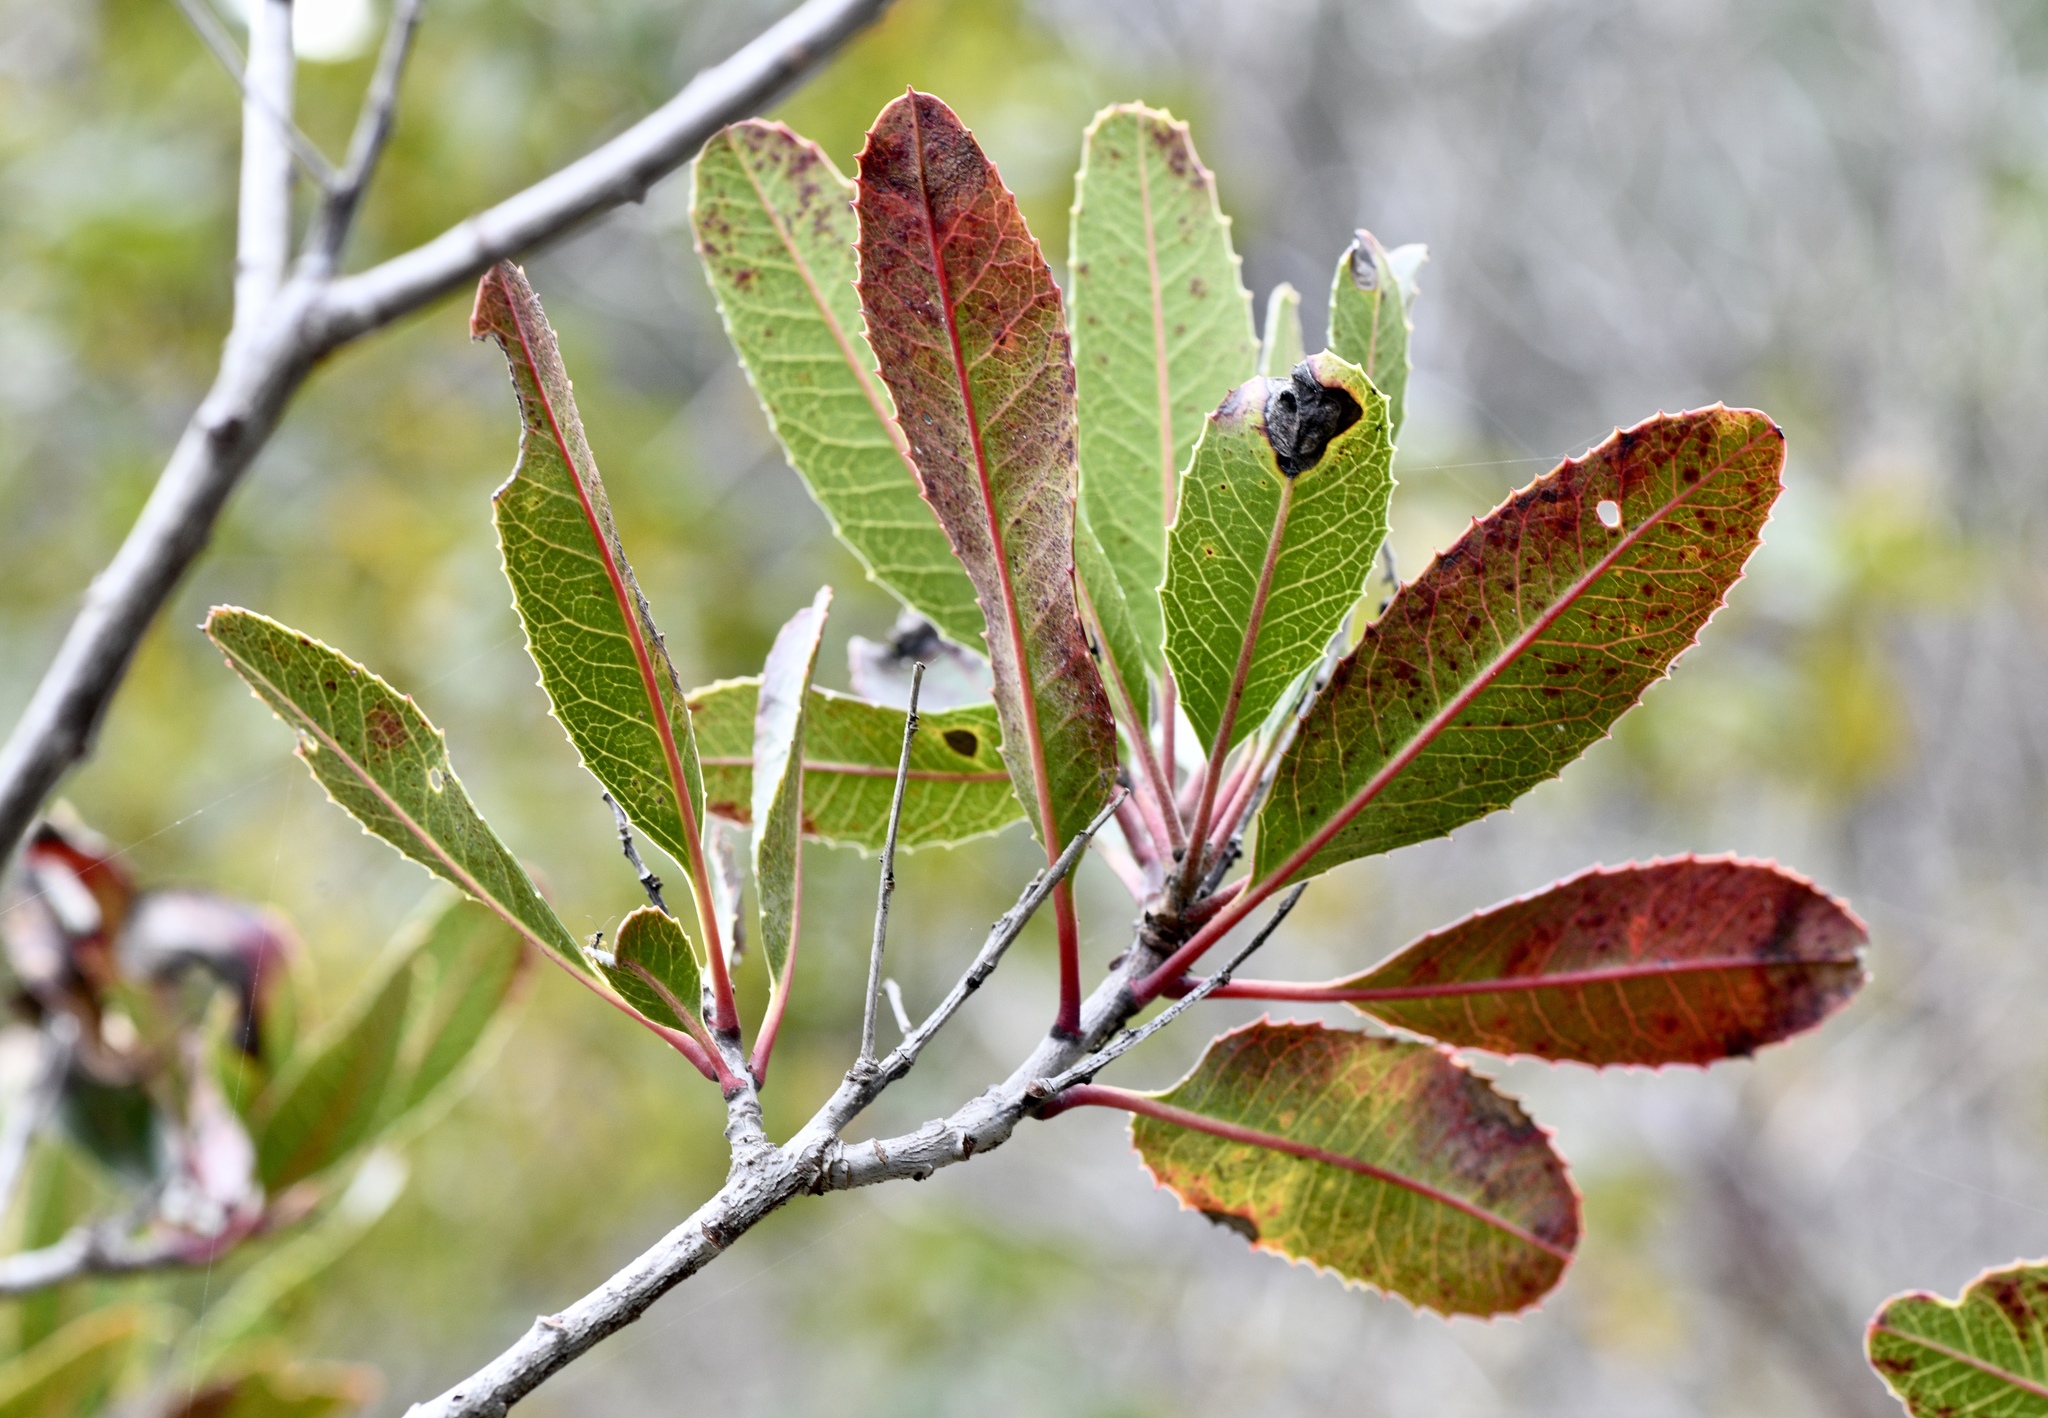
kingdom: Plantae
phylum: Tracheophyta
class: Magnoliopsida
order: Rosales
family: Rosaceae
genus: Heteromeles
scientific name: Heteromeles arbutifolia
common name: California-holly
